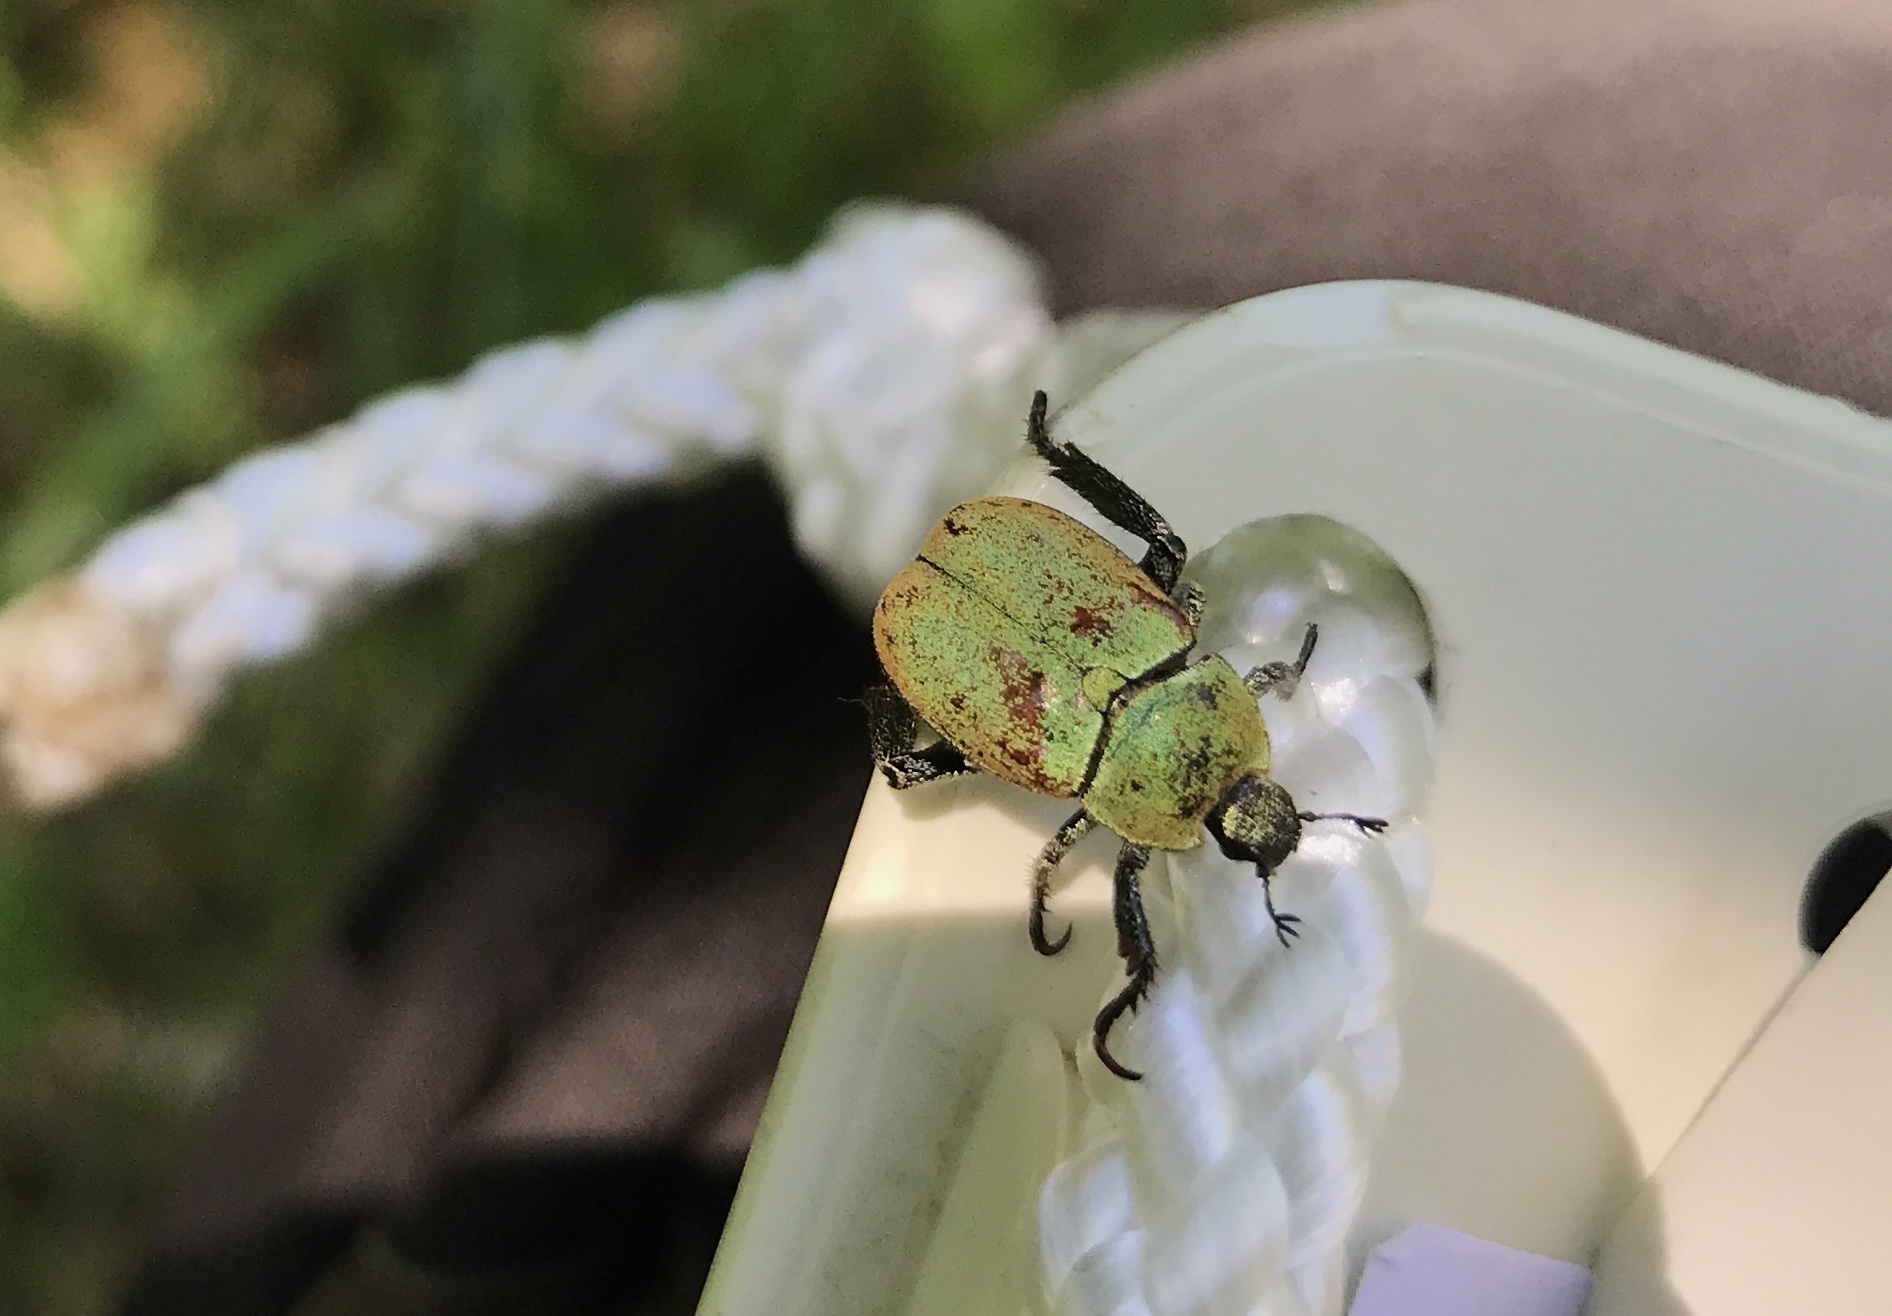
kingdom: Animalia
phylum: Arthropoda
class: Insecta
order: Coleoptera
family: Scarabaeidae
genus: Hoplia
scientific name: Hoplia argentea
